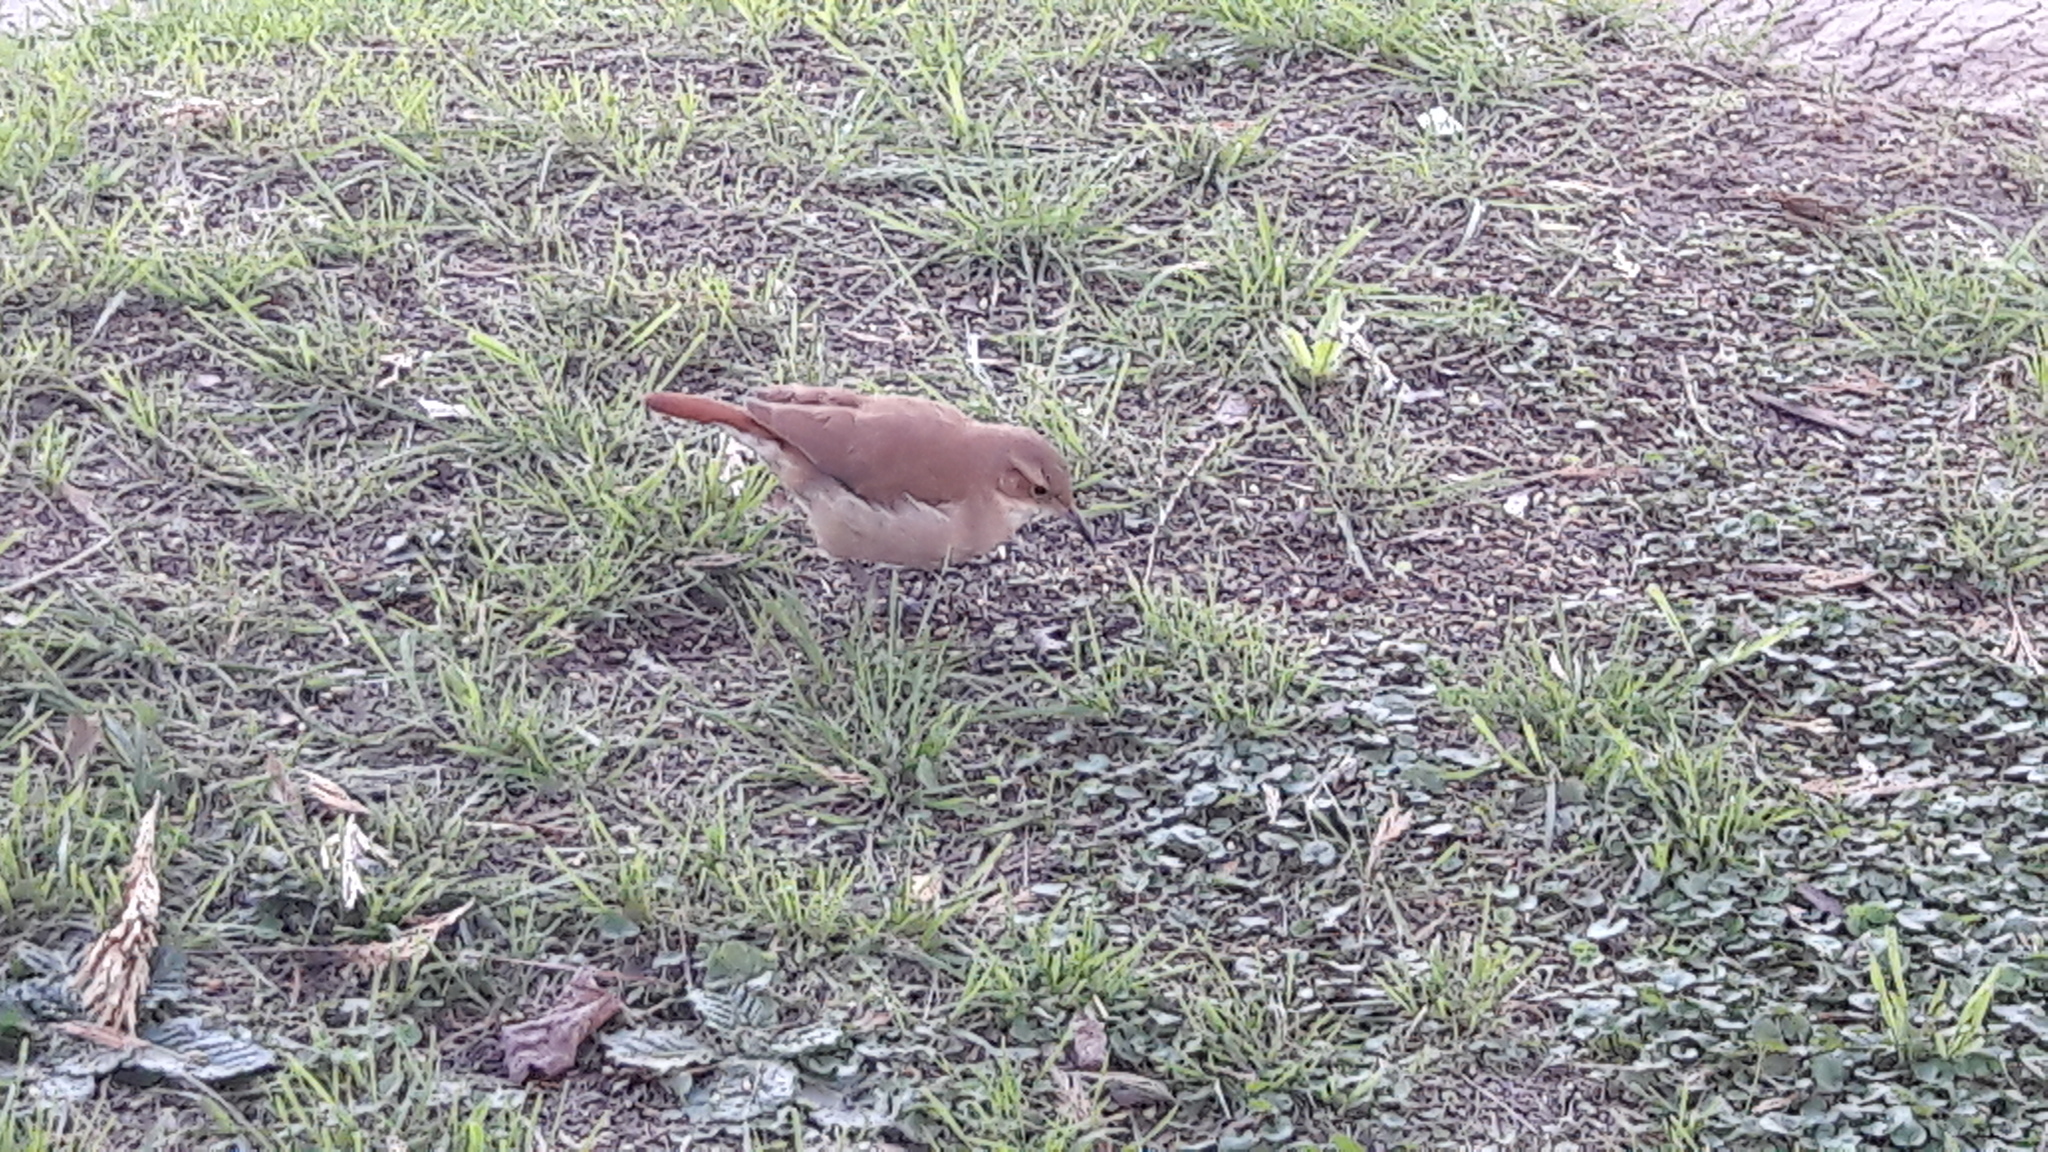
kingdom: Animalia
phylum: Chordata
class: Aves
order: Passeriformes
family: Furnariidae
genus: Furnarius
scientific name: Furnarius rufus
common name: Rufous hornero
